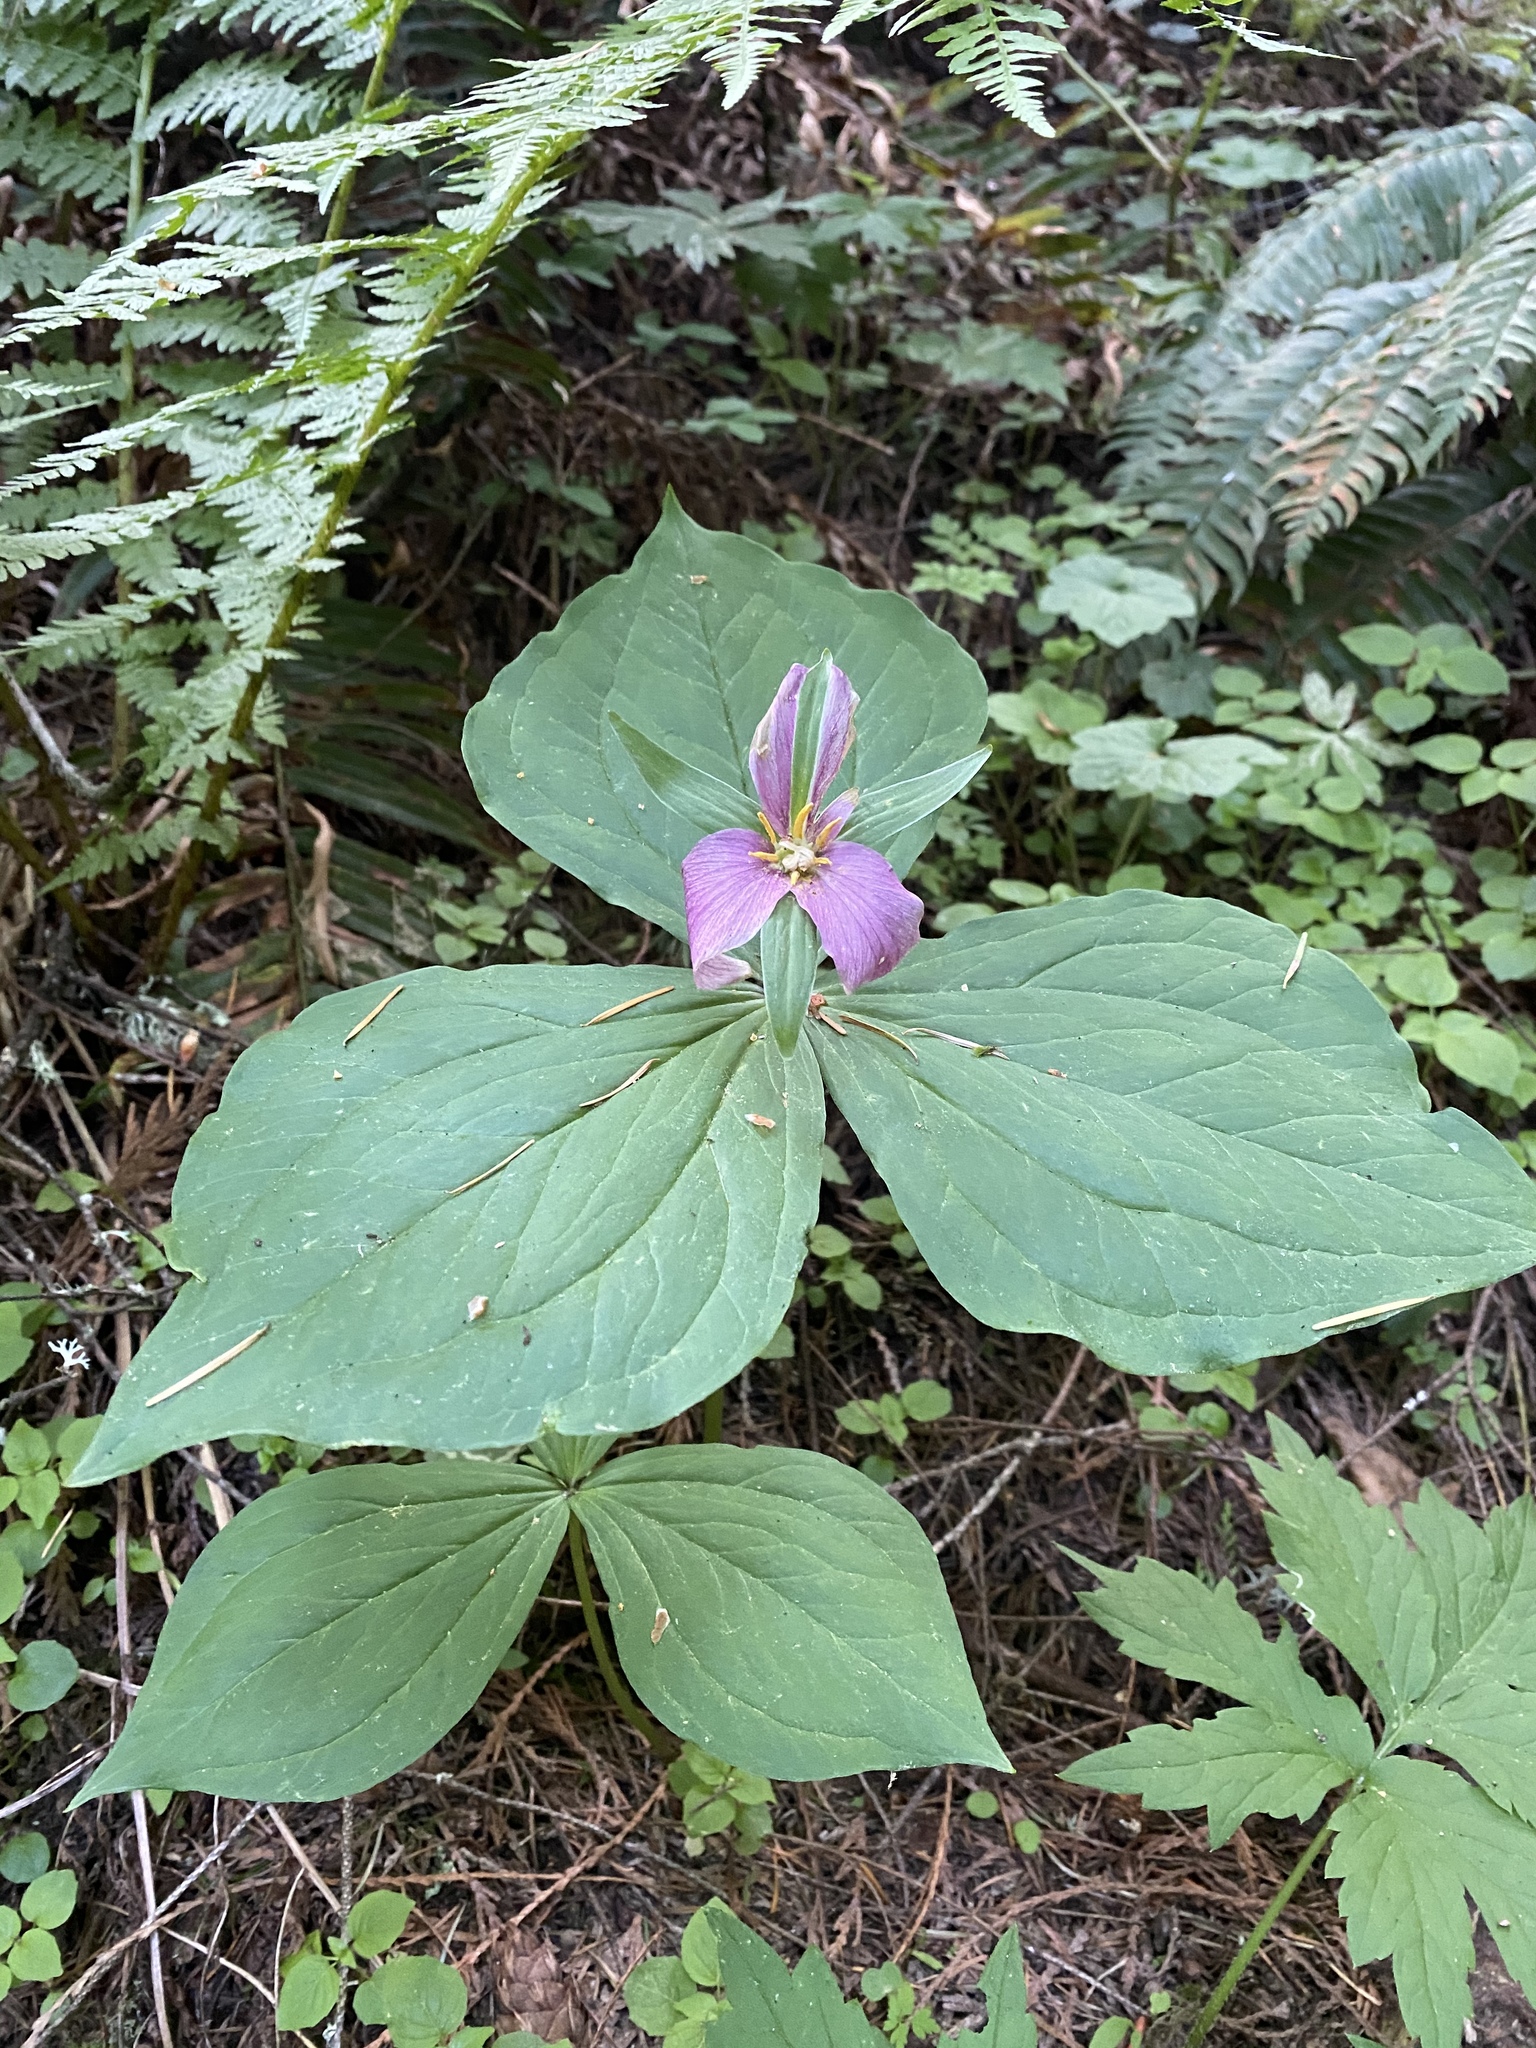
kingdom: Plantae
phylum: Tracheophyta
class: Liliopsida
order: Liliales
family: Melanthiaceae
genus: Trillium
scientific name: Trillium ovatum
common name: Pacific trillium
